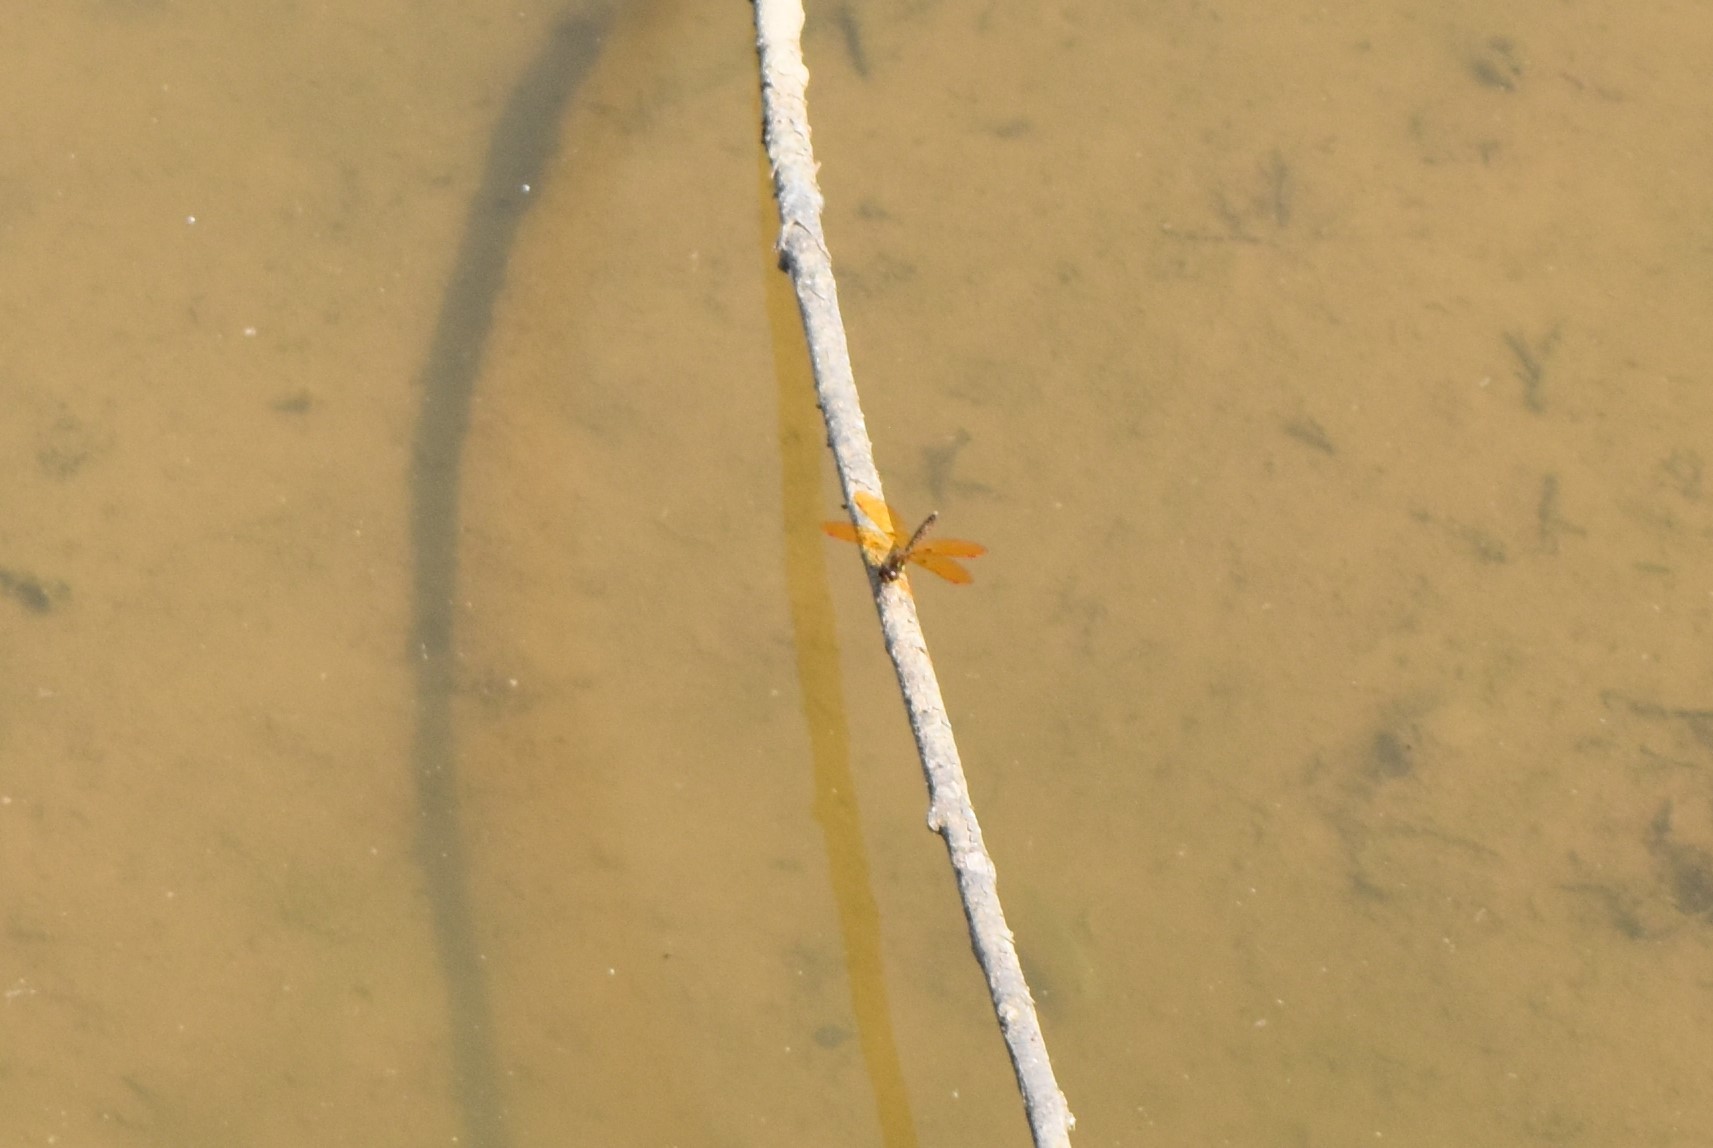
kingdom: Animalia
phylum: Arthropoda
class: Insecta
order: Odonata
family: Libellulidae
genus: Perithemis
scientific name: Perithemis tenera
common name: Eastern amberwing
